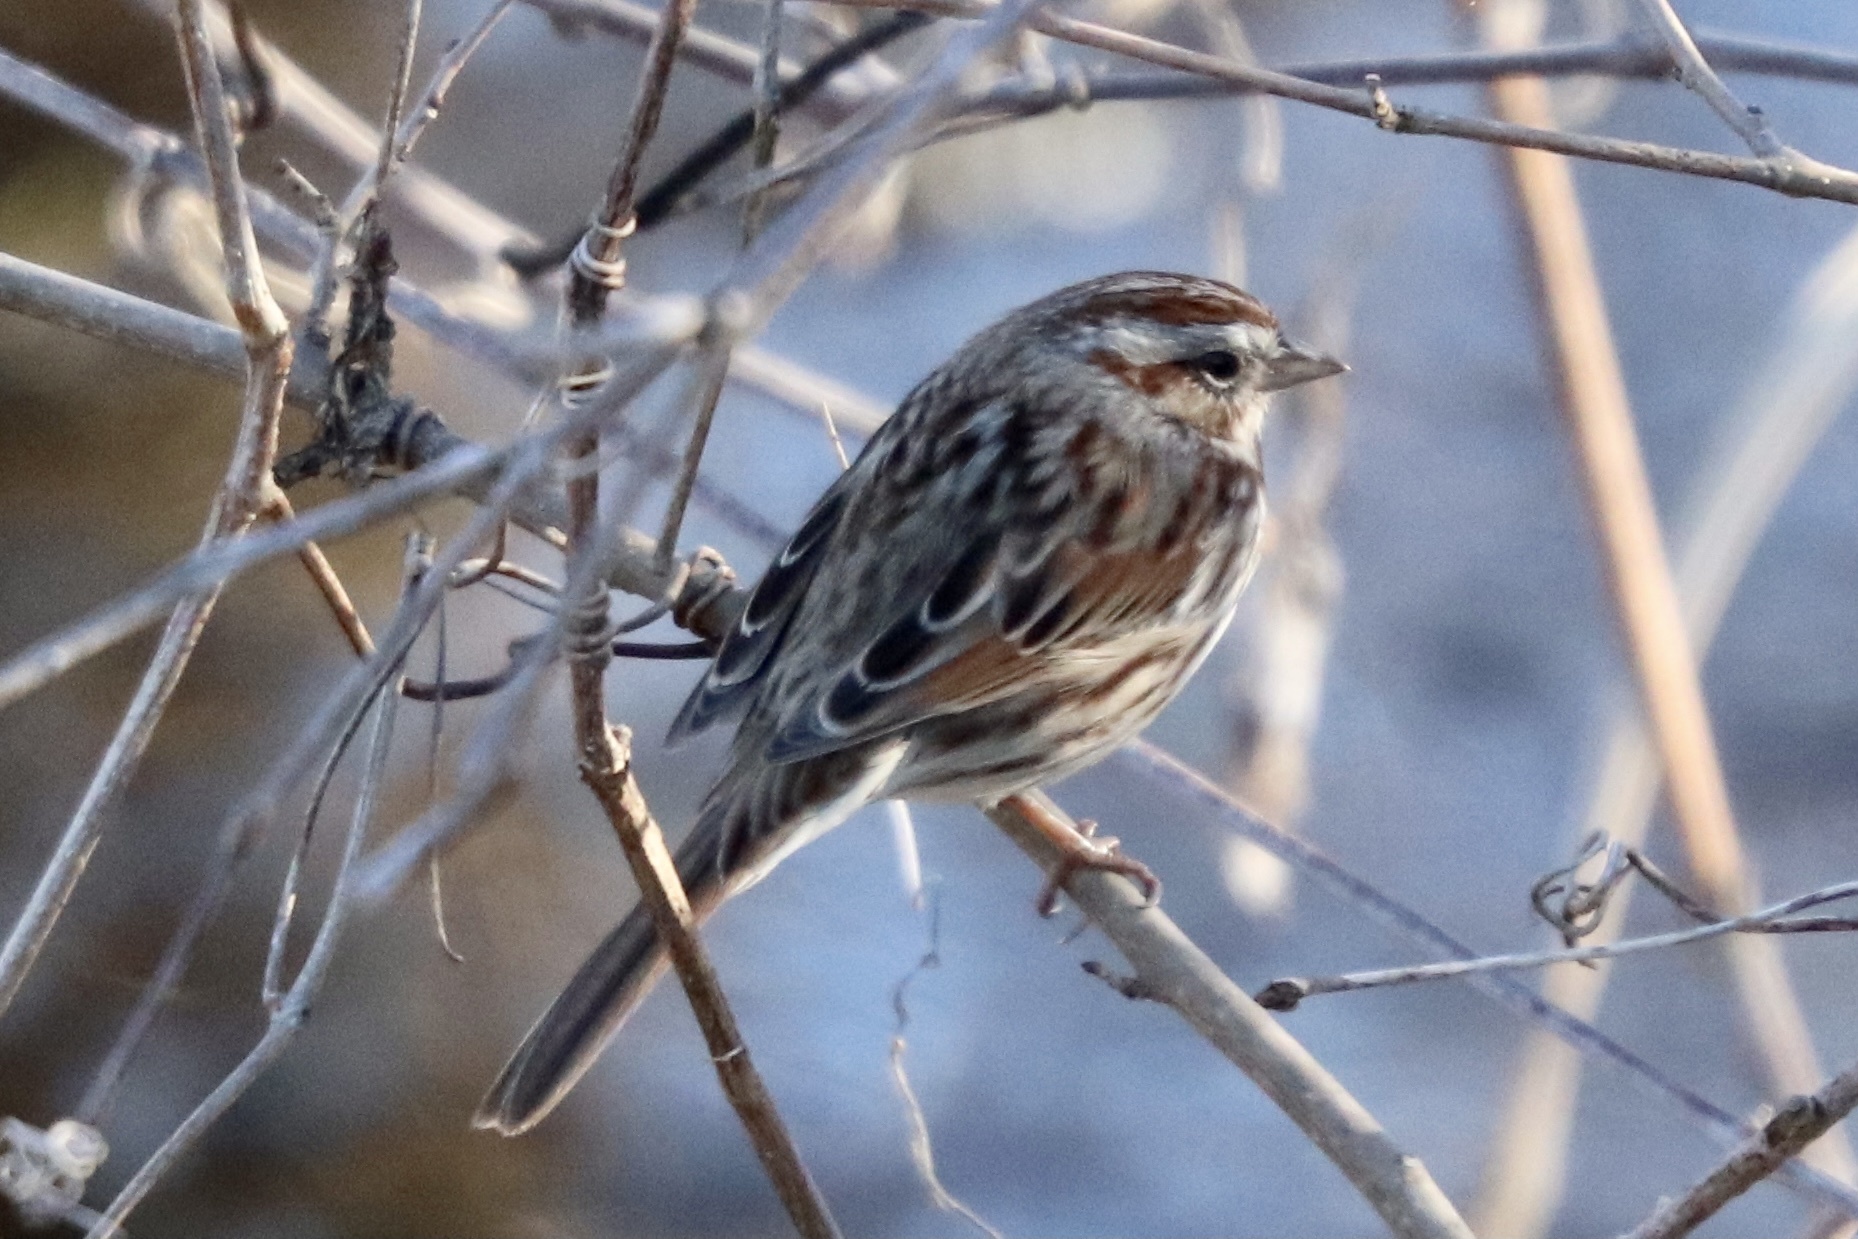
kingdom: Animalia
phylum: Chordata
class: Aves
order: Passeriformes
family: Passerellidae
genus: Melospiza
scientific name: Melospiza melodia
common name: Song sparrow
